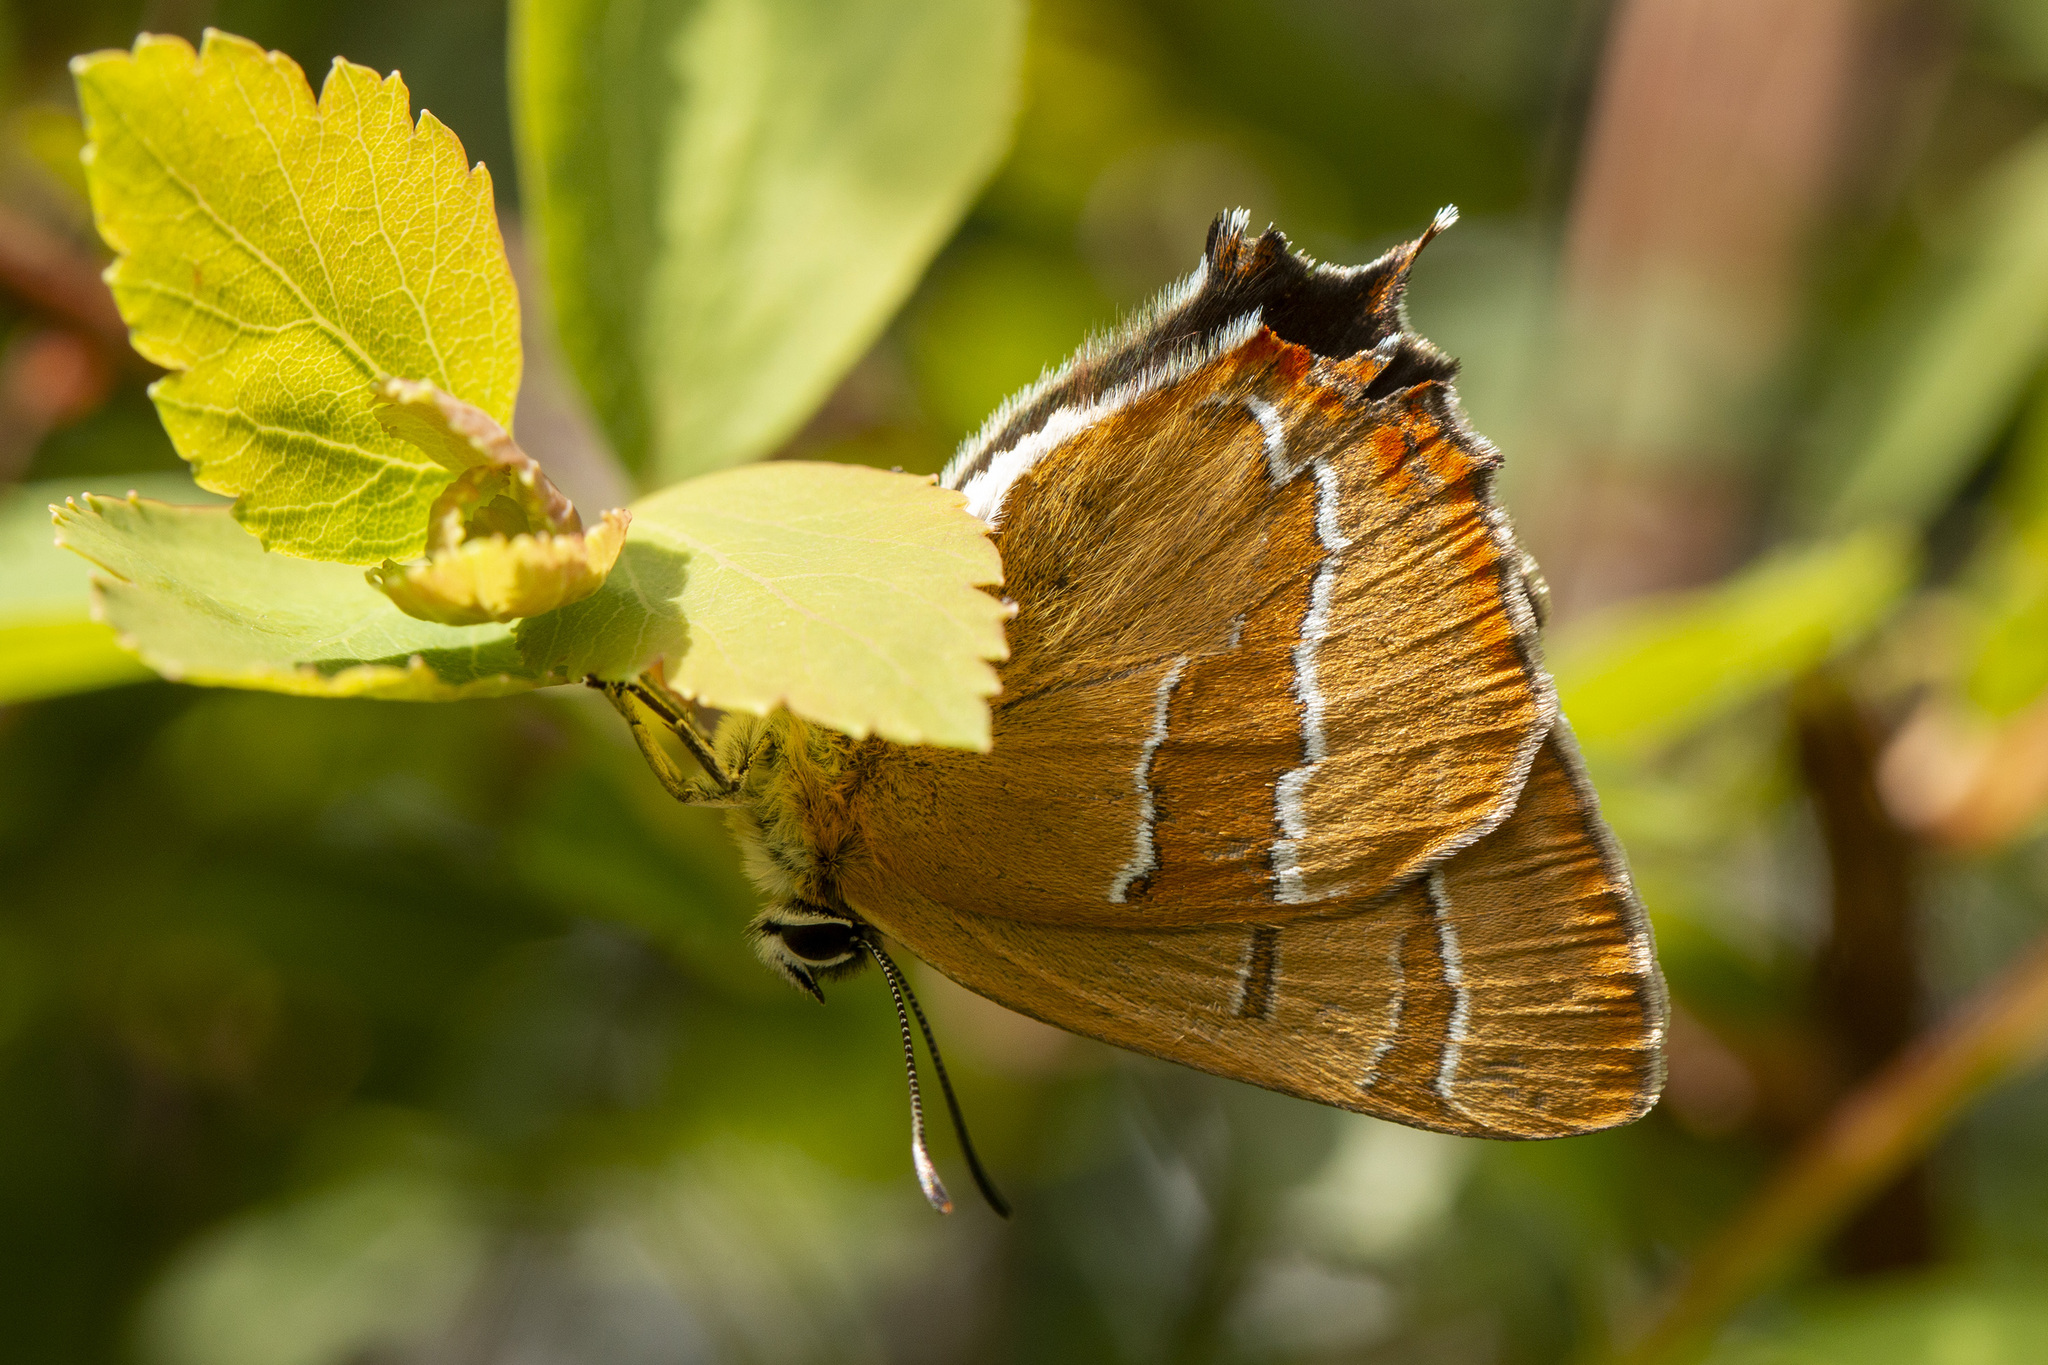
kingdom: Animalia
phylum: Arthropoda
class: Insecta
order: Lepidoptera
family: Lycaenidae
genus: Thecla
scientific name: Thecla betulae
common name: Brown hairstreak
